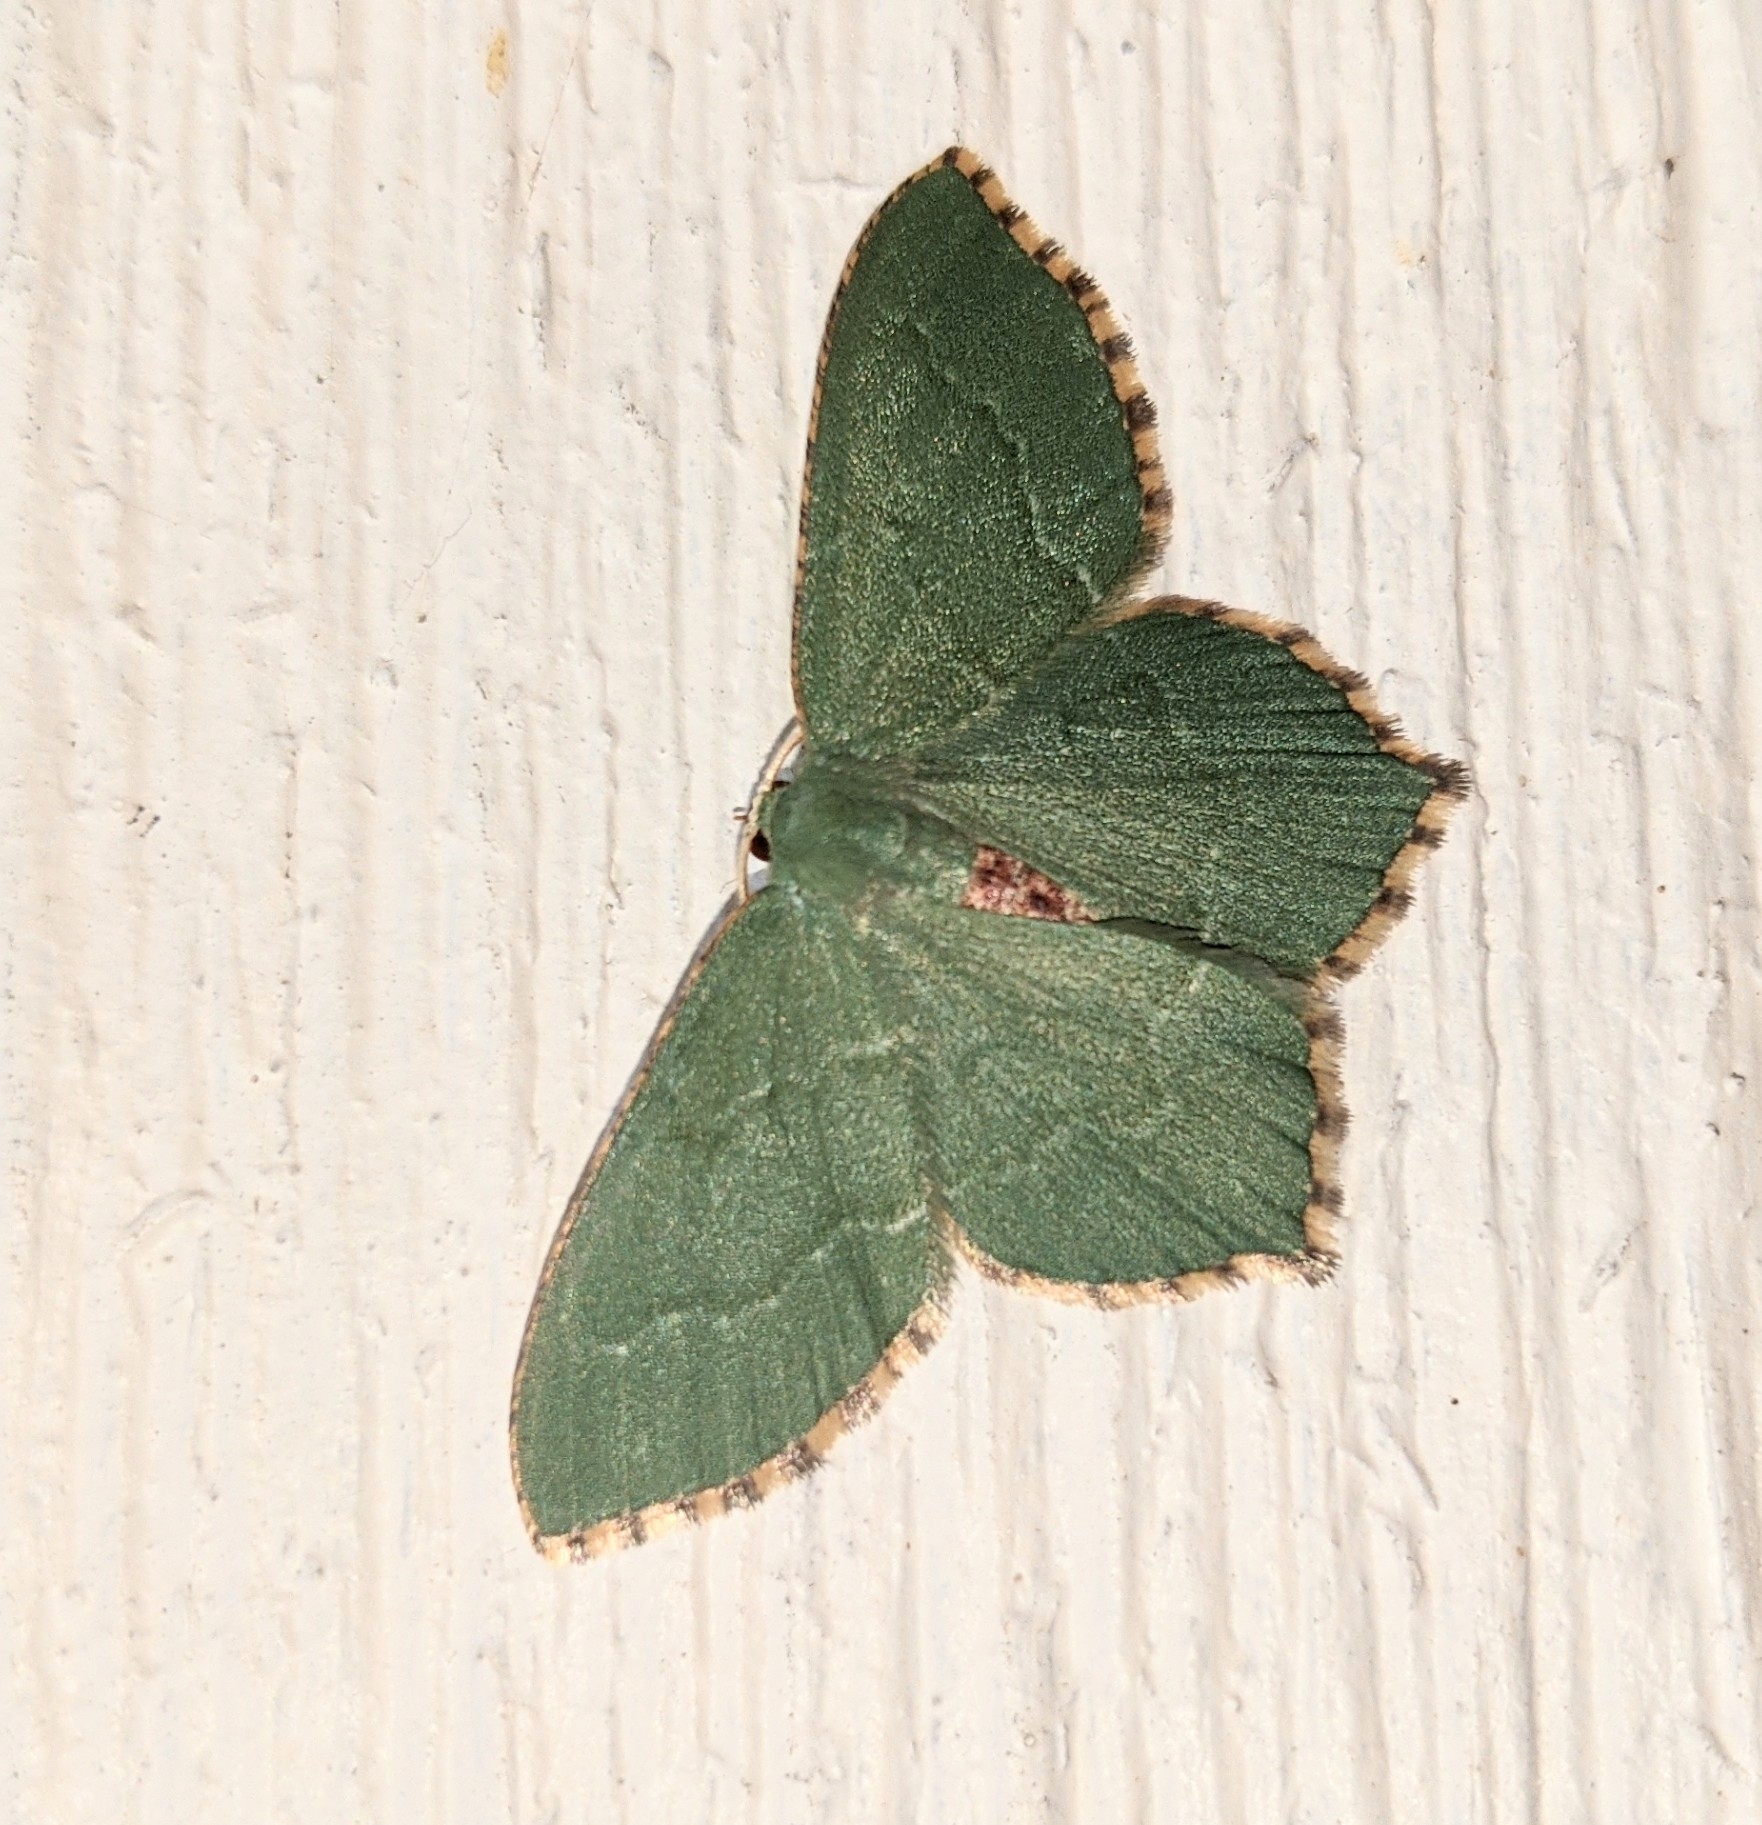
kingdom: Animalia
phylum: Arthropoda
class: Insecta
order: Lepidoptera
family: Geometridae
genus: Hemithea
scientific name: Hemithea aestivaria
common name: Common emerald
